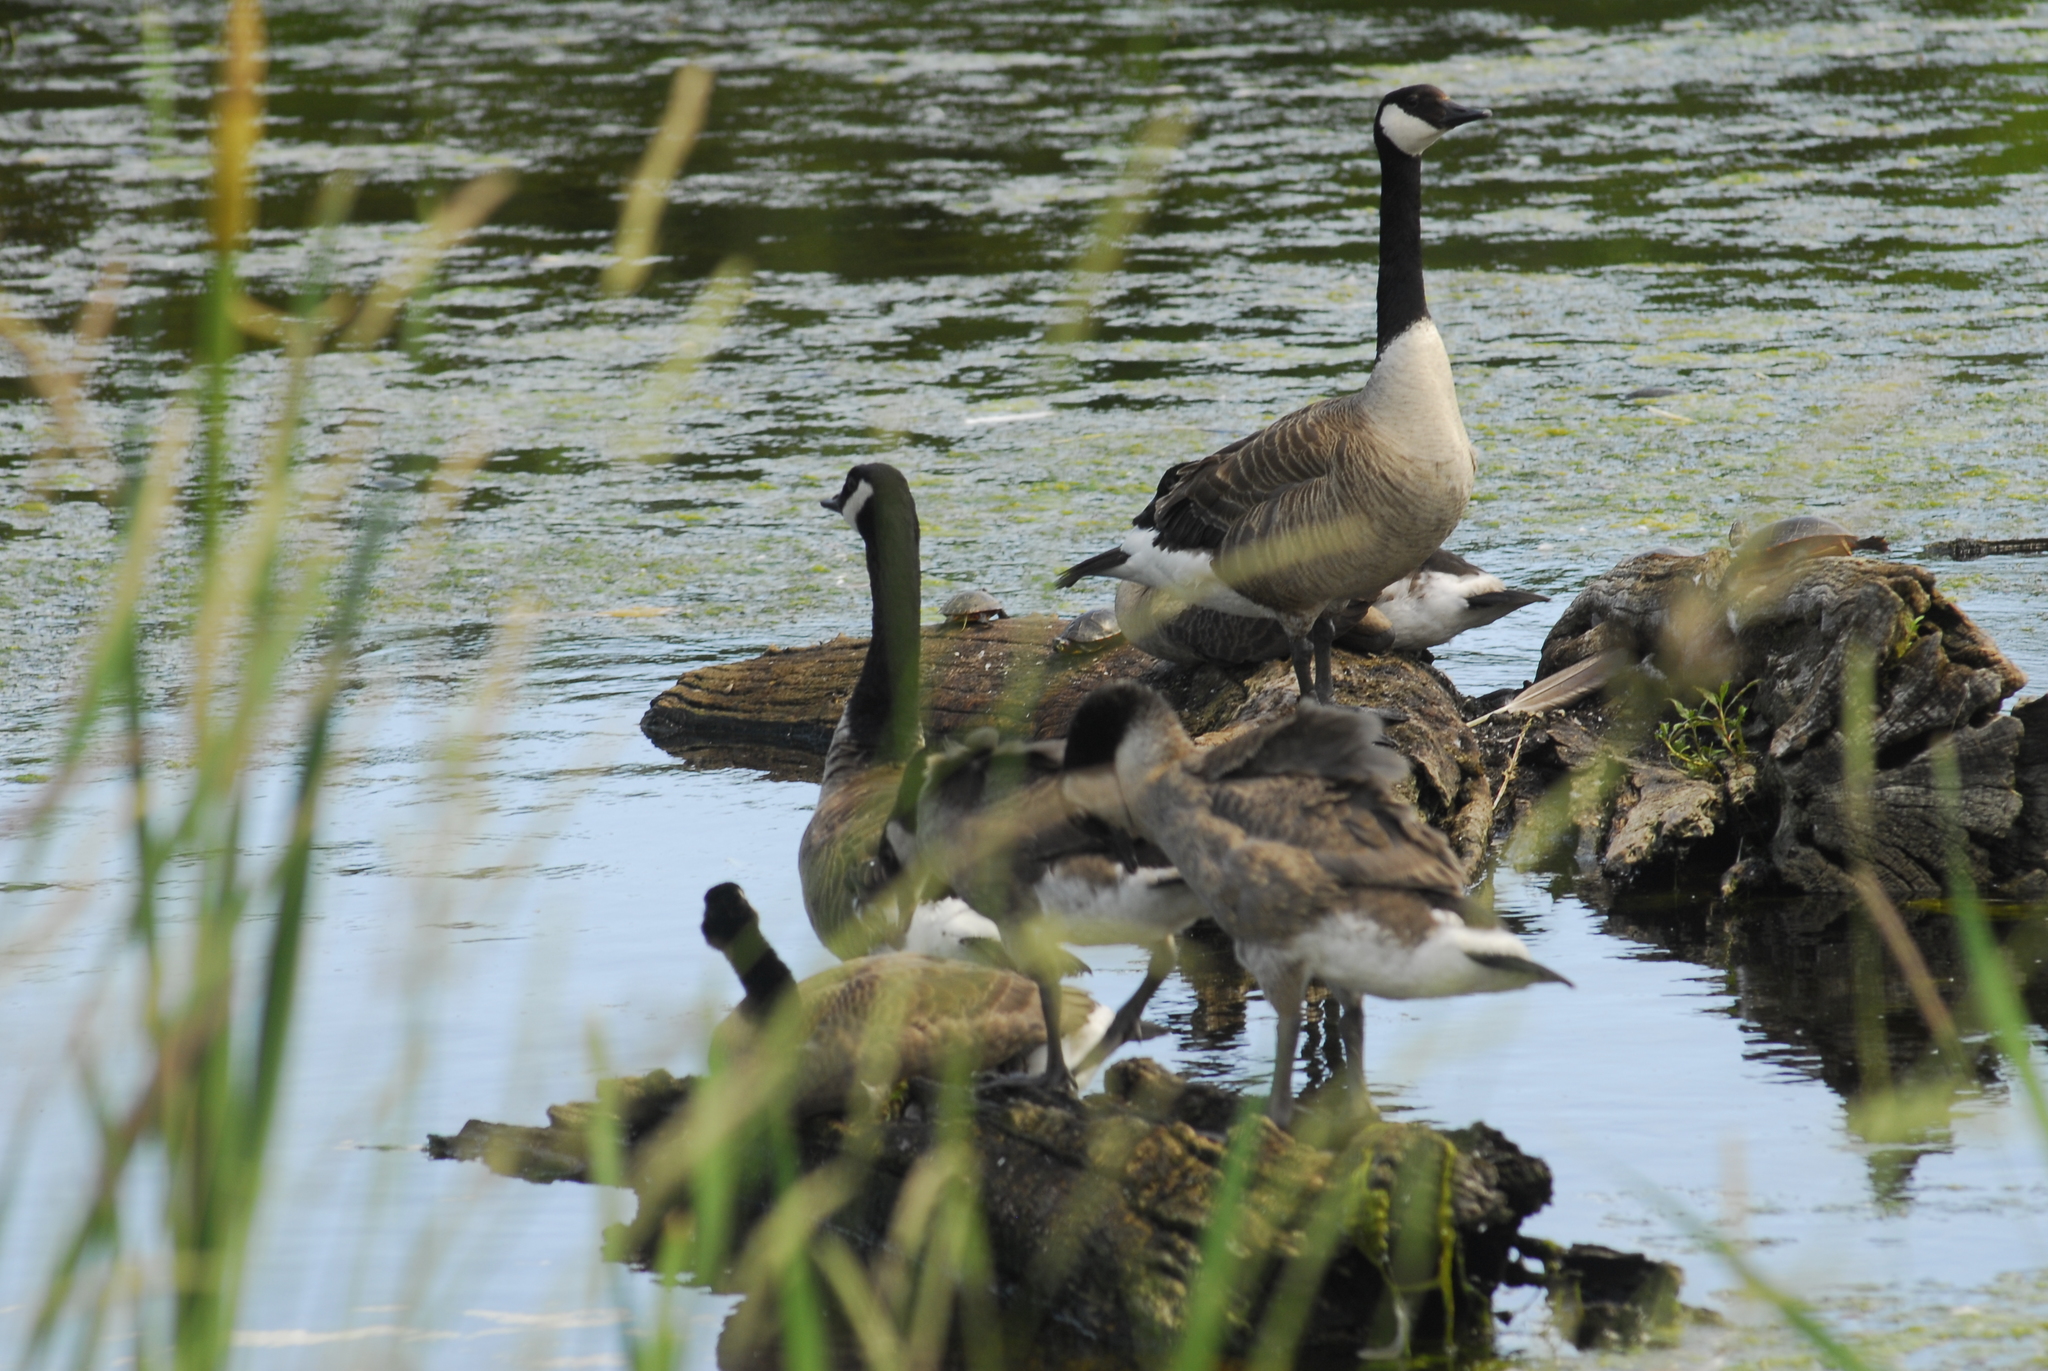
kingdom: Animalia
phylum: Chordata
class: Testudines
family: Emydidae
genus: Chrysemys
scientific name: Chrysemys picta
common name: Painted turtle
